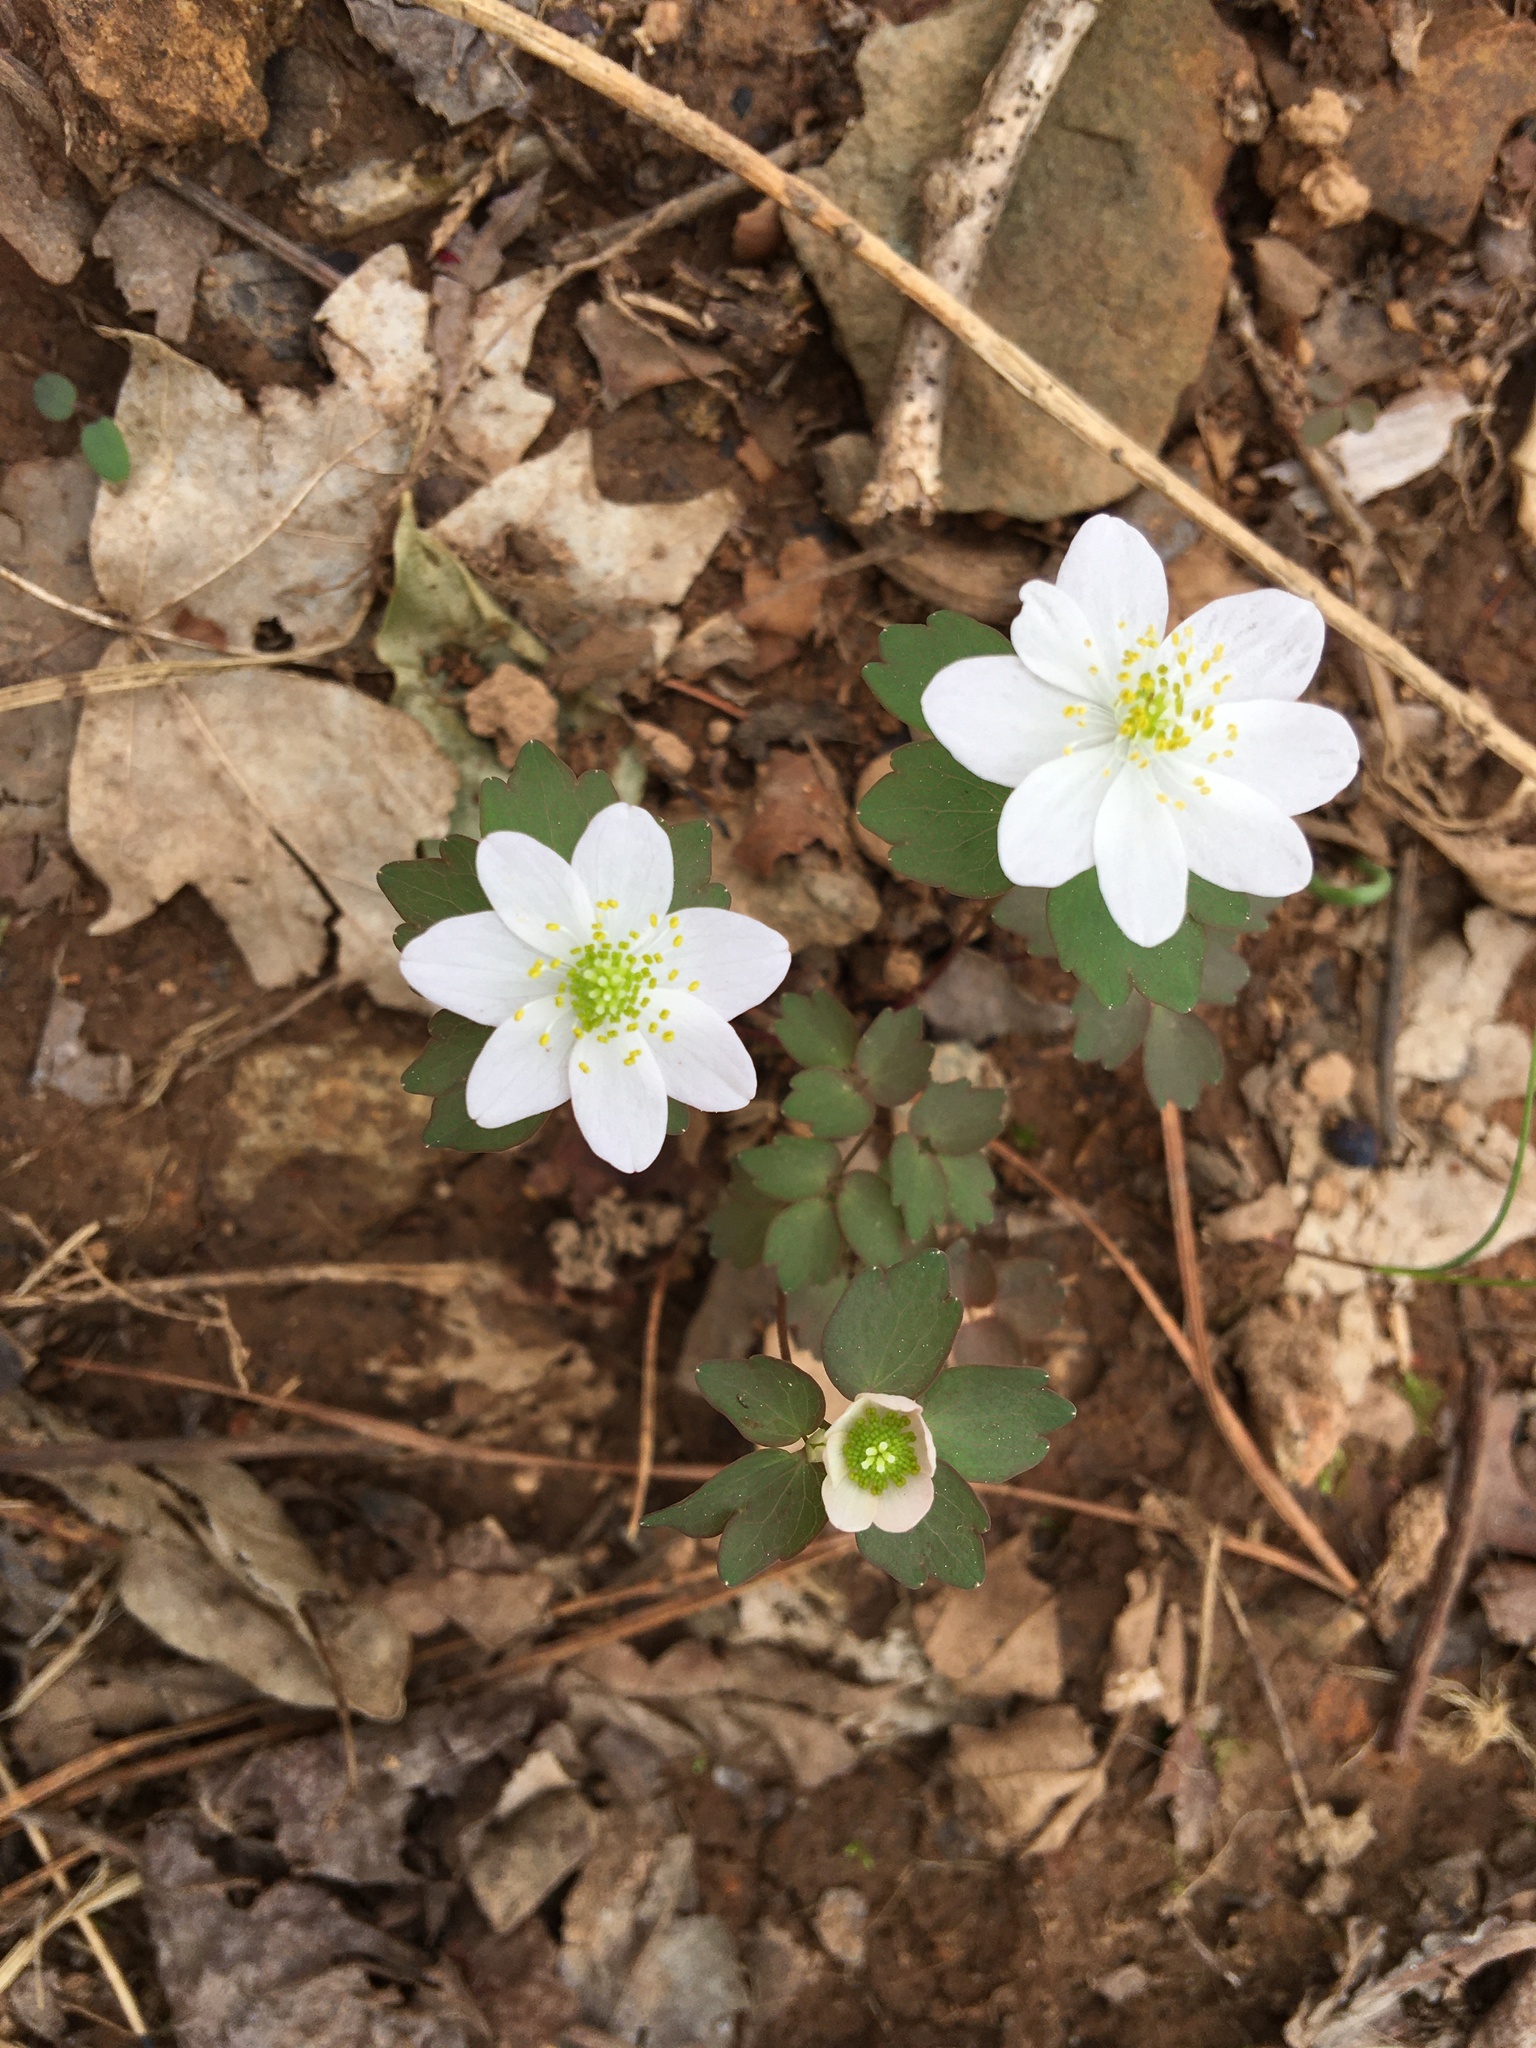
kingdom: Plantae
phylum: Tracheophyta
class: Magnoliopsida
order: Ranunculales
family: Ranunculaceae
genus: Thalictrum
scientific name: Thalictrum thalictroides
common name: Rue-anemone
